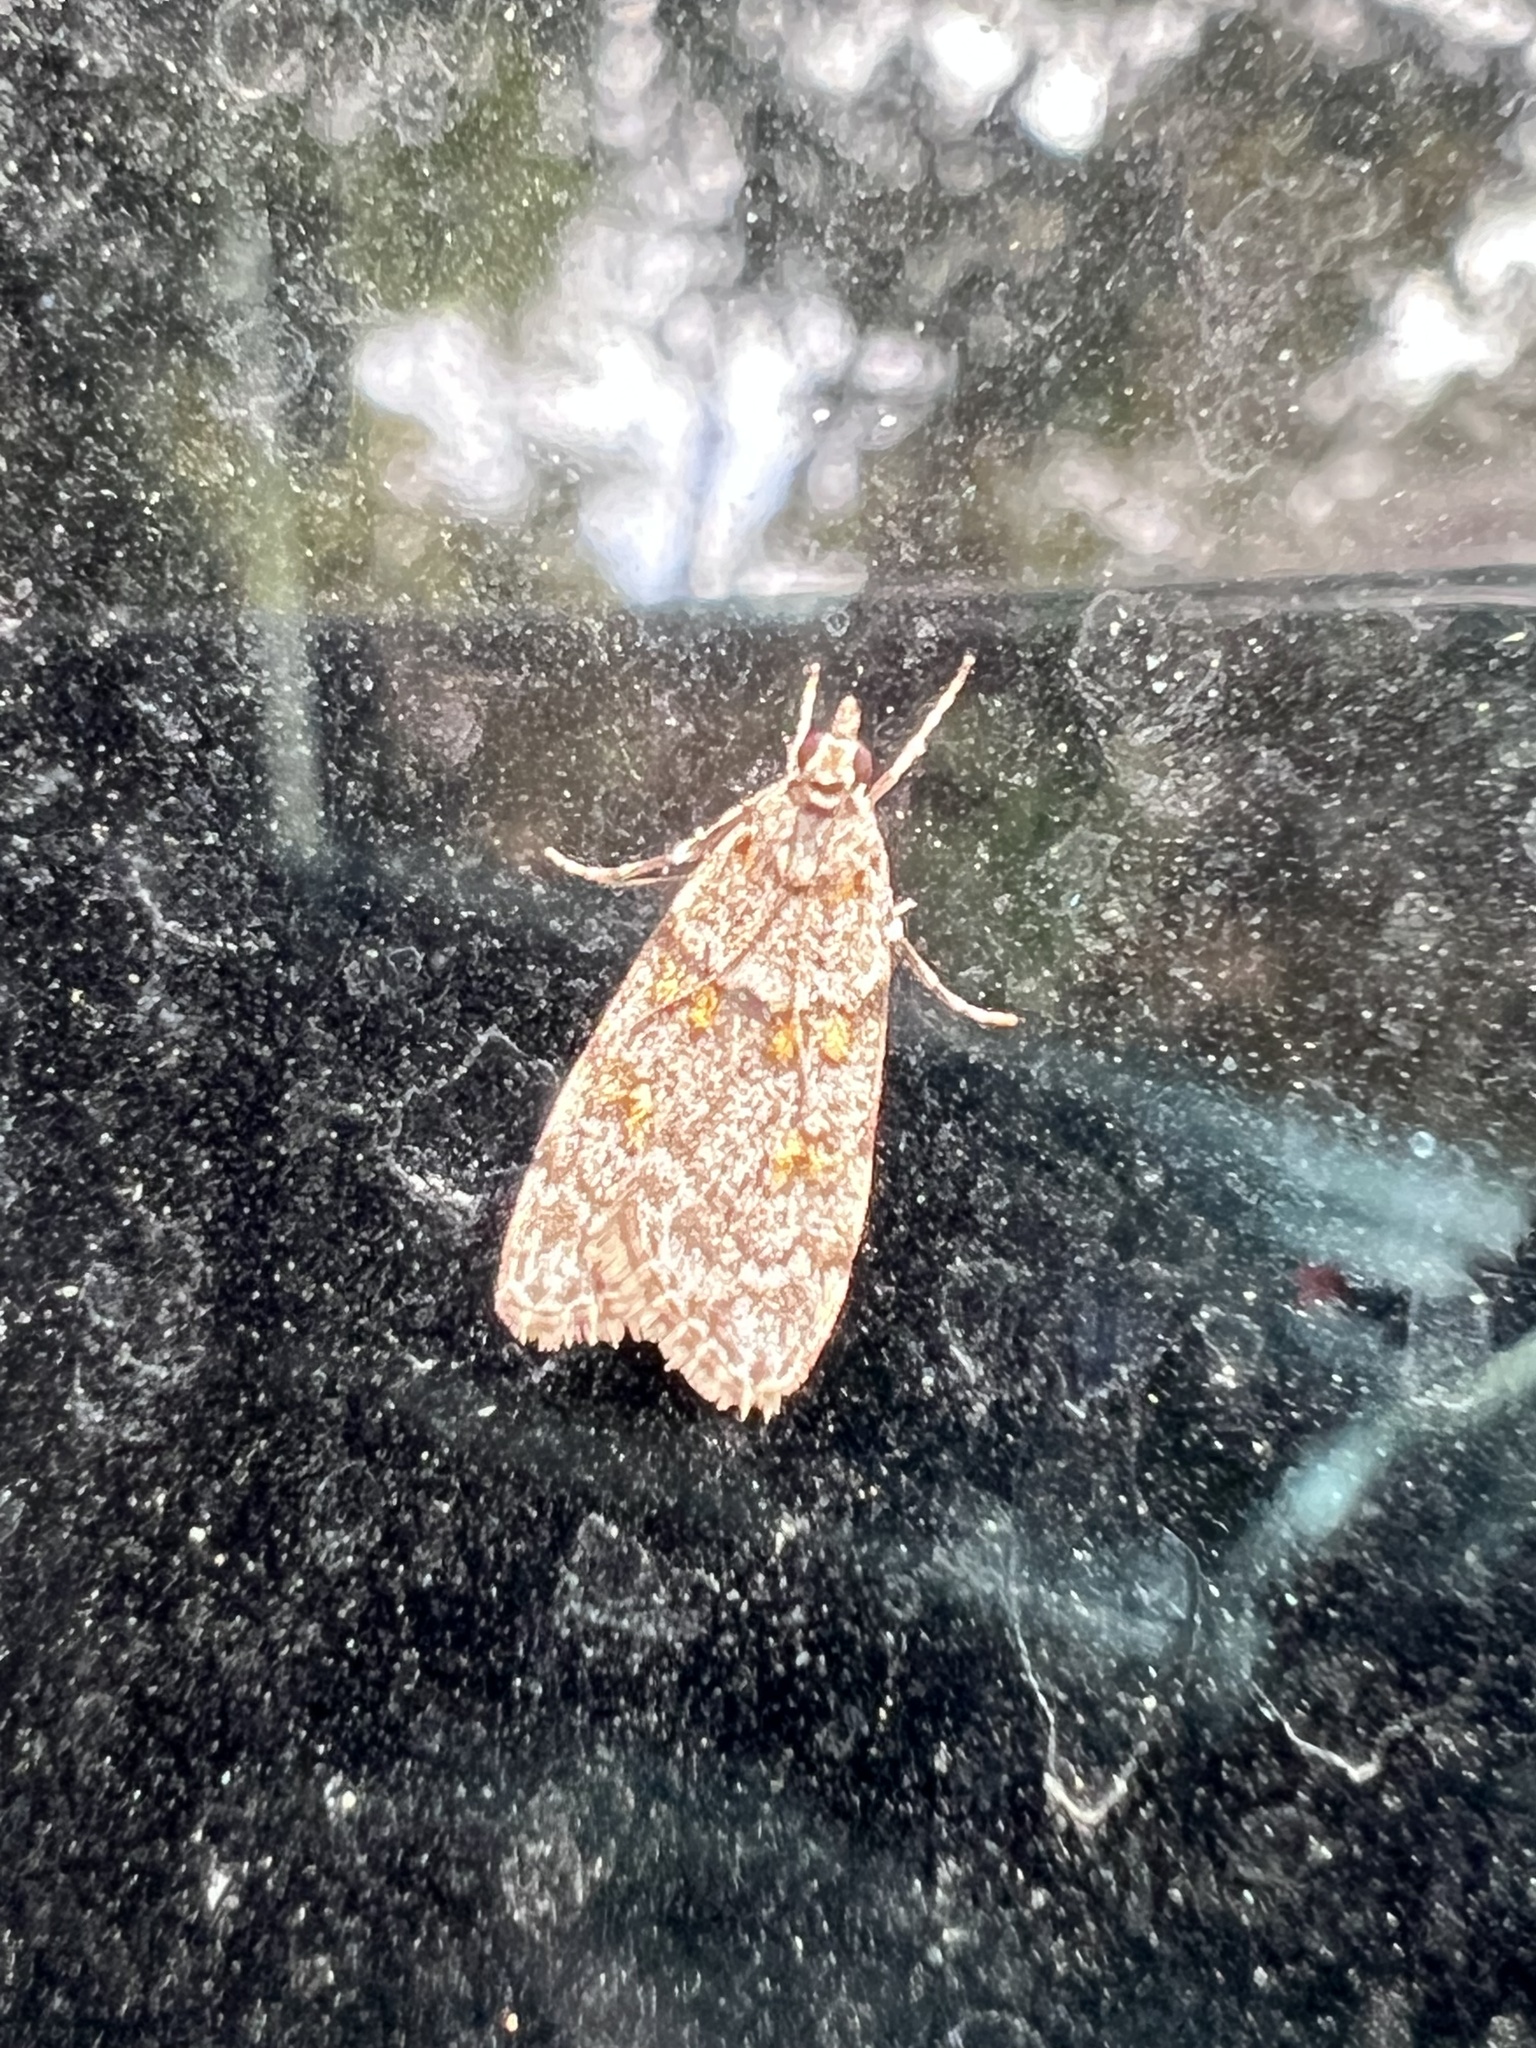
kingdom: Animalia
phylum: Arthropoda
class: Insecta
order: Lepidoptera
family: Crambidae
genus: Scoparia
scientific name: Scoparia biplagialis
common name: Double-striped scoparia moth
